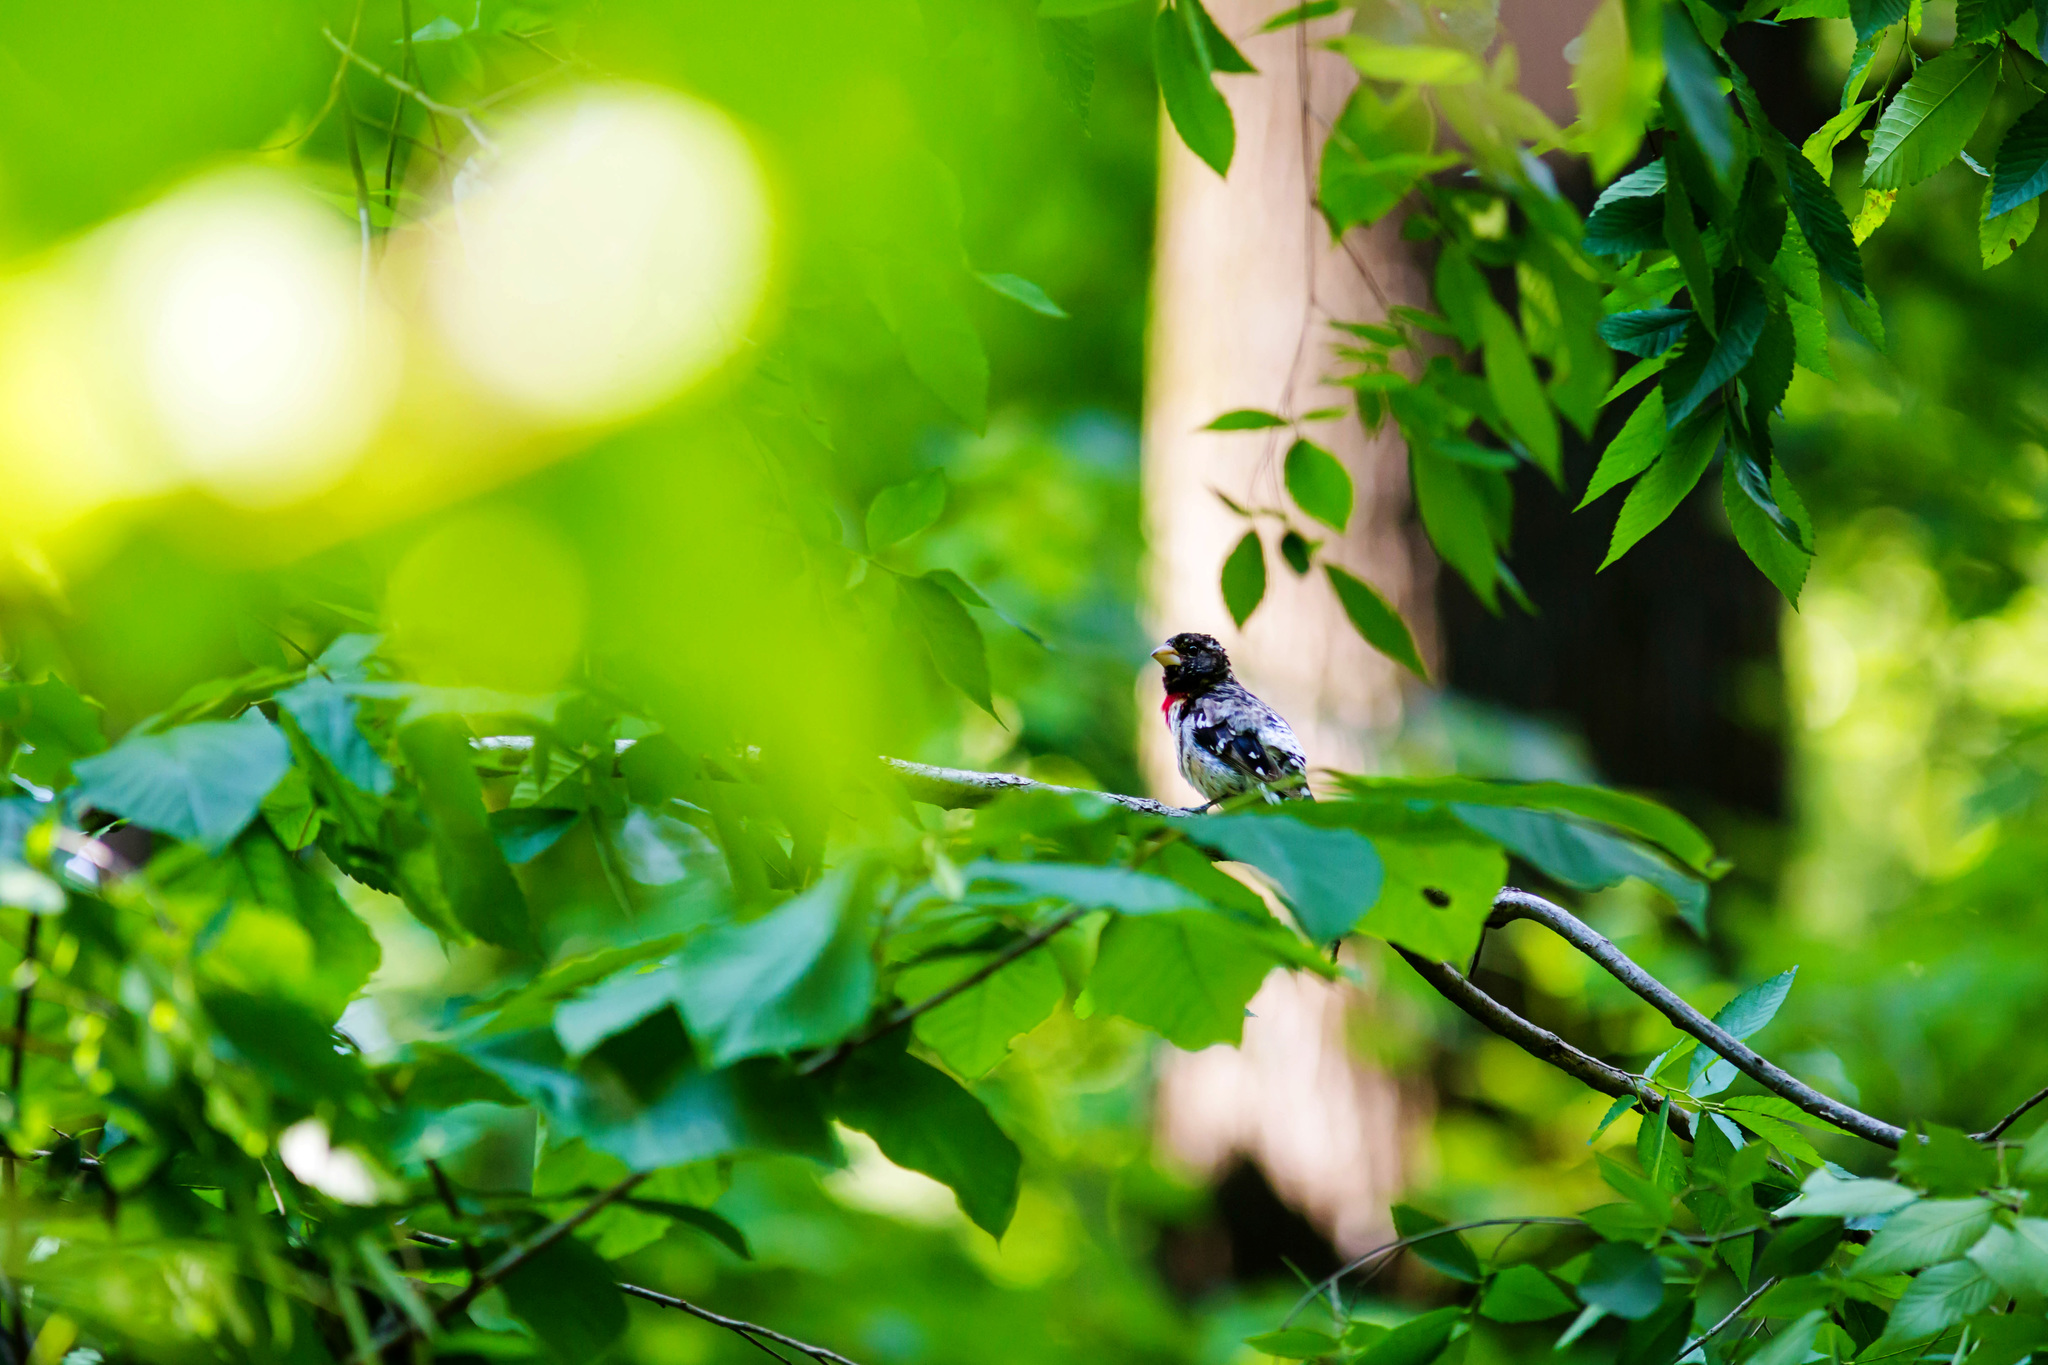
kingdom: Animalia
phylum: Chordata
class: Aves
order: Passeriformes
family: Cardinalidae
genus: Pheucticus
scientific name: Pheucticus ludovicianus
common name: Rose-breasted grosbeak
